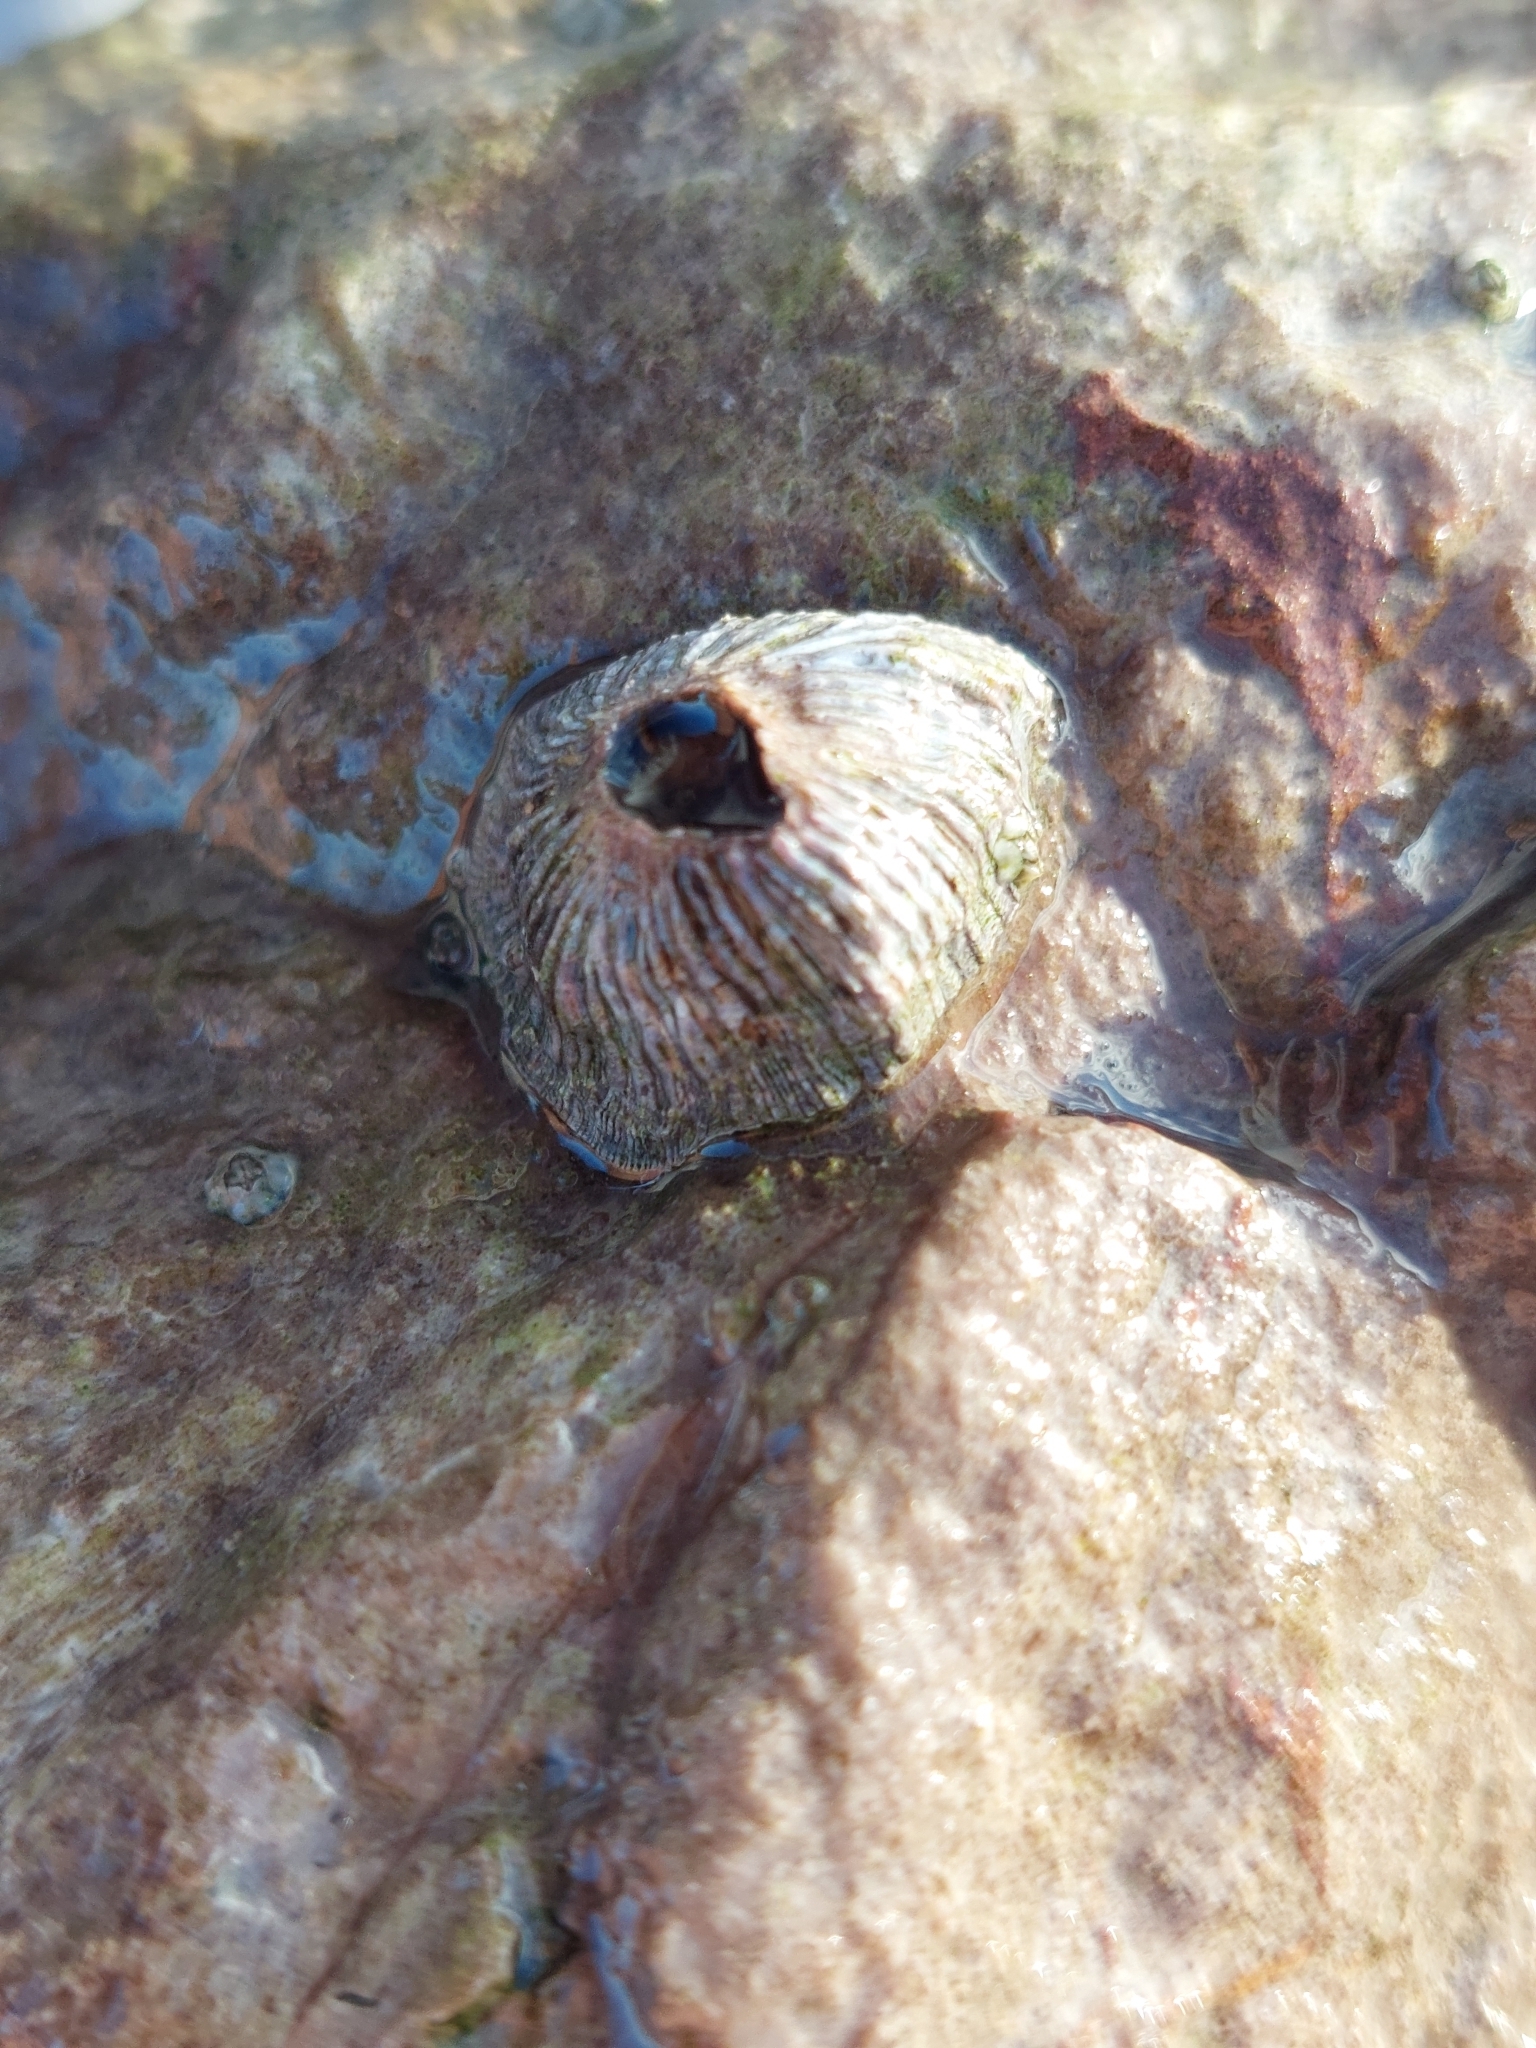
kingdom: Animalia
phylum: Arthropoda
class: Maxillopoda
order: Sessilia
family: Balanidae
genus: Perforatus
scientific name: Perforatus perforatus
